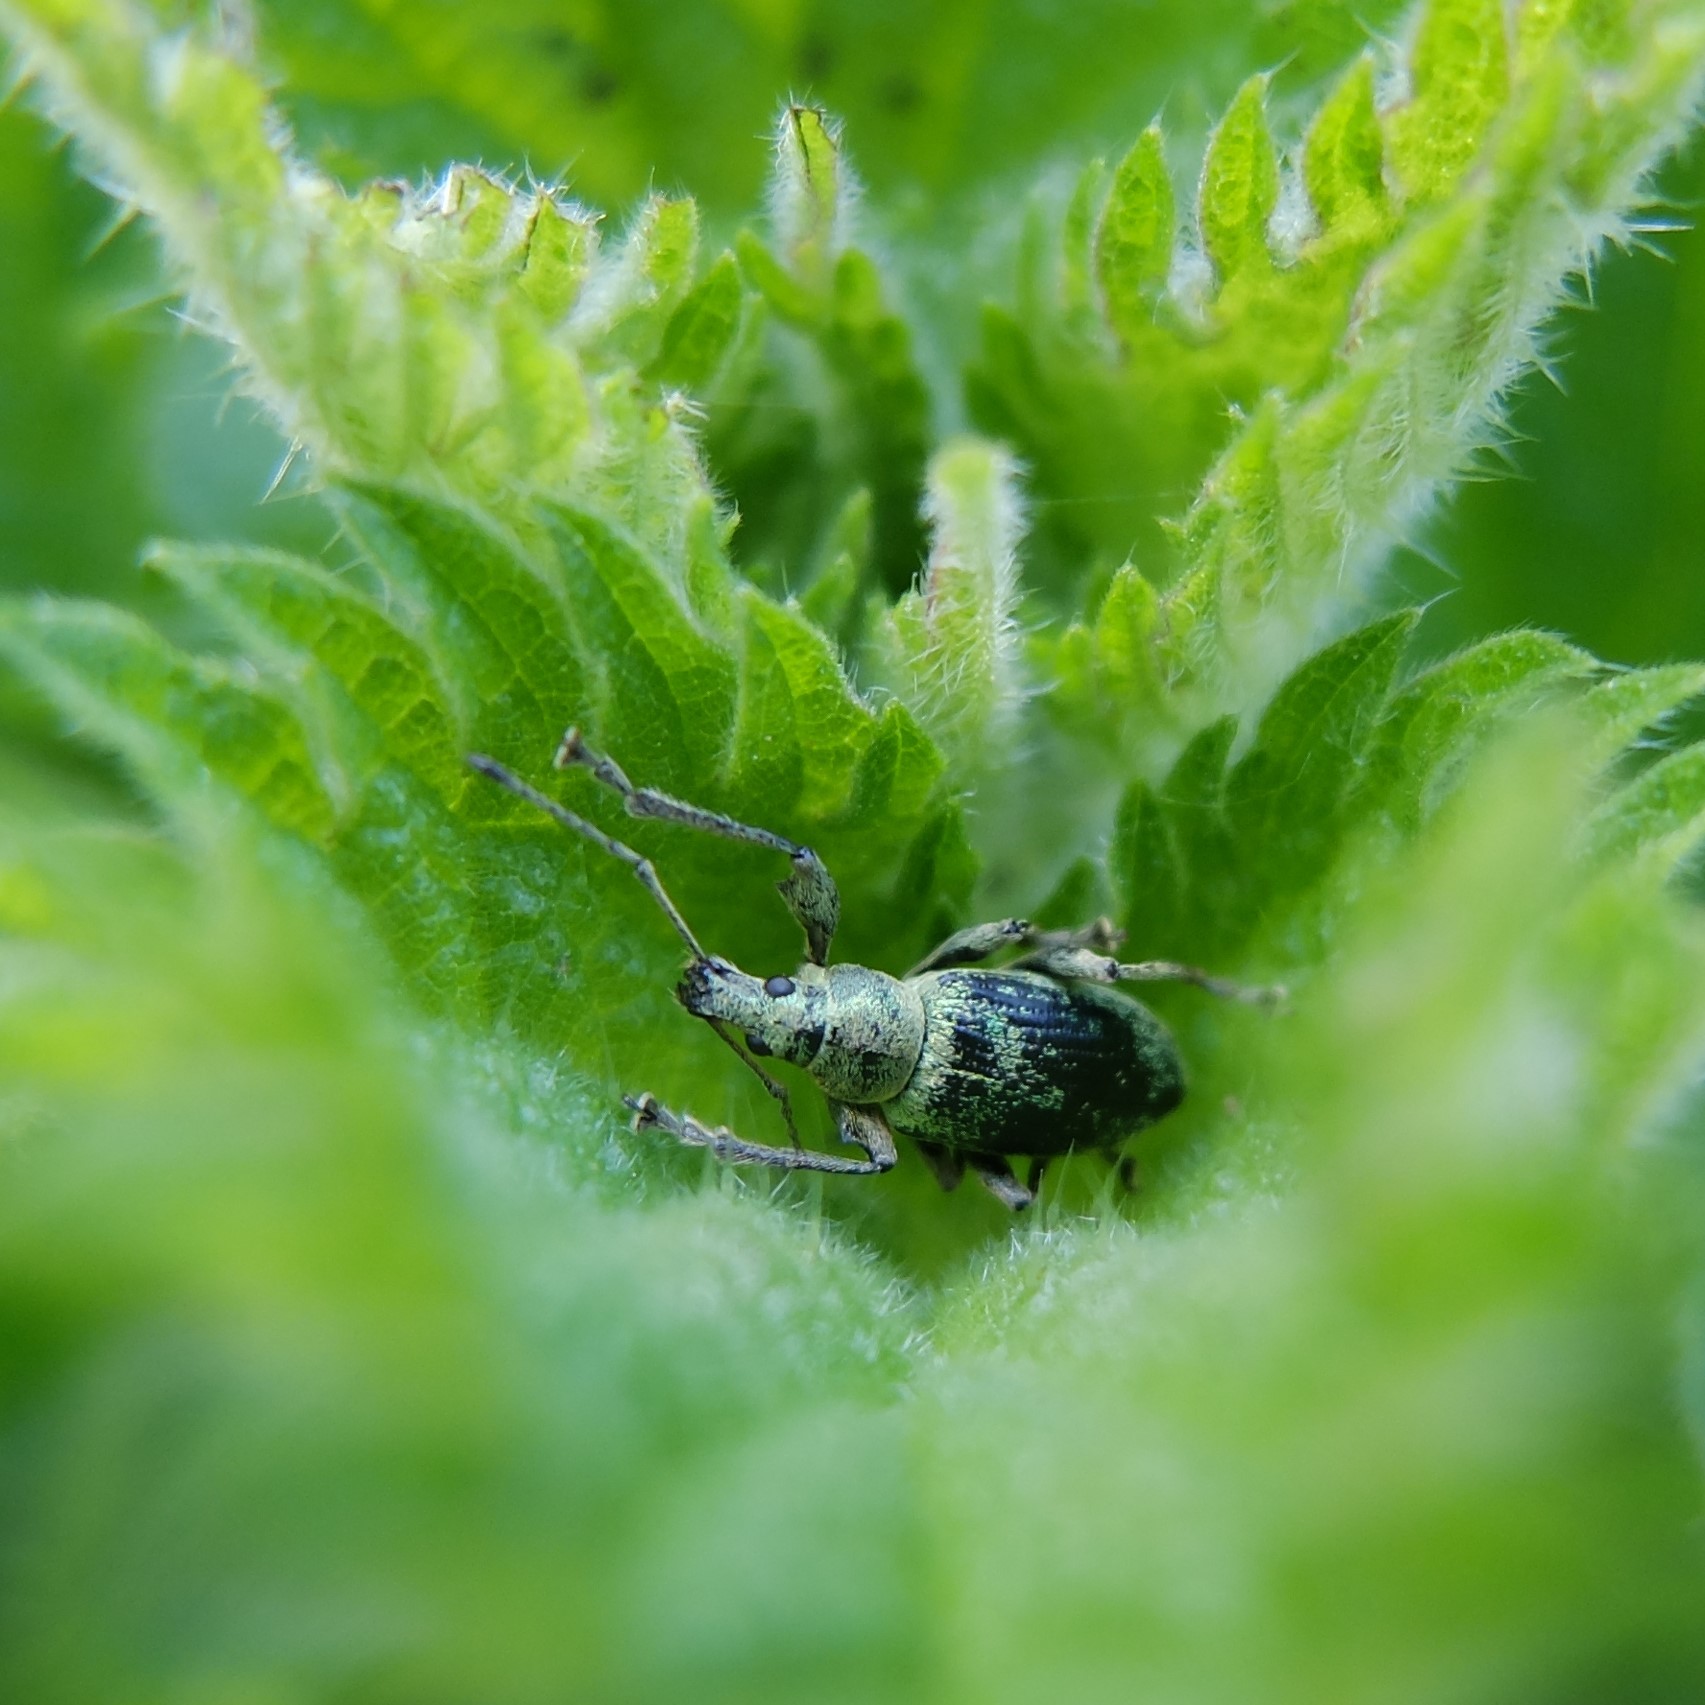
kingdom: Animalia
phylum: Arthropoda
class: Insecta
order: Coleoptera
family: Curculionidae
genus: Phyllobius
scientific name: Phyllobius pomaceus
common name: Green nettle weevil
